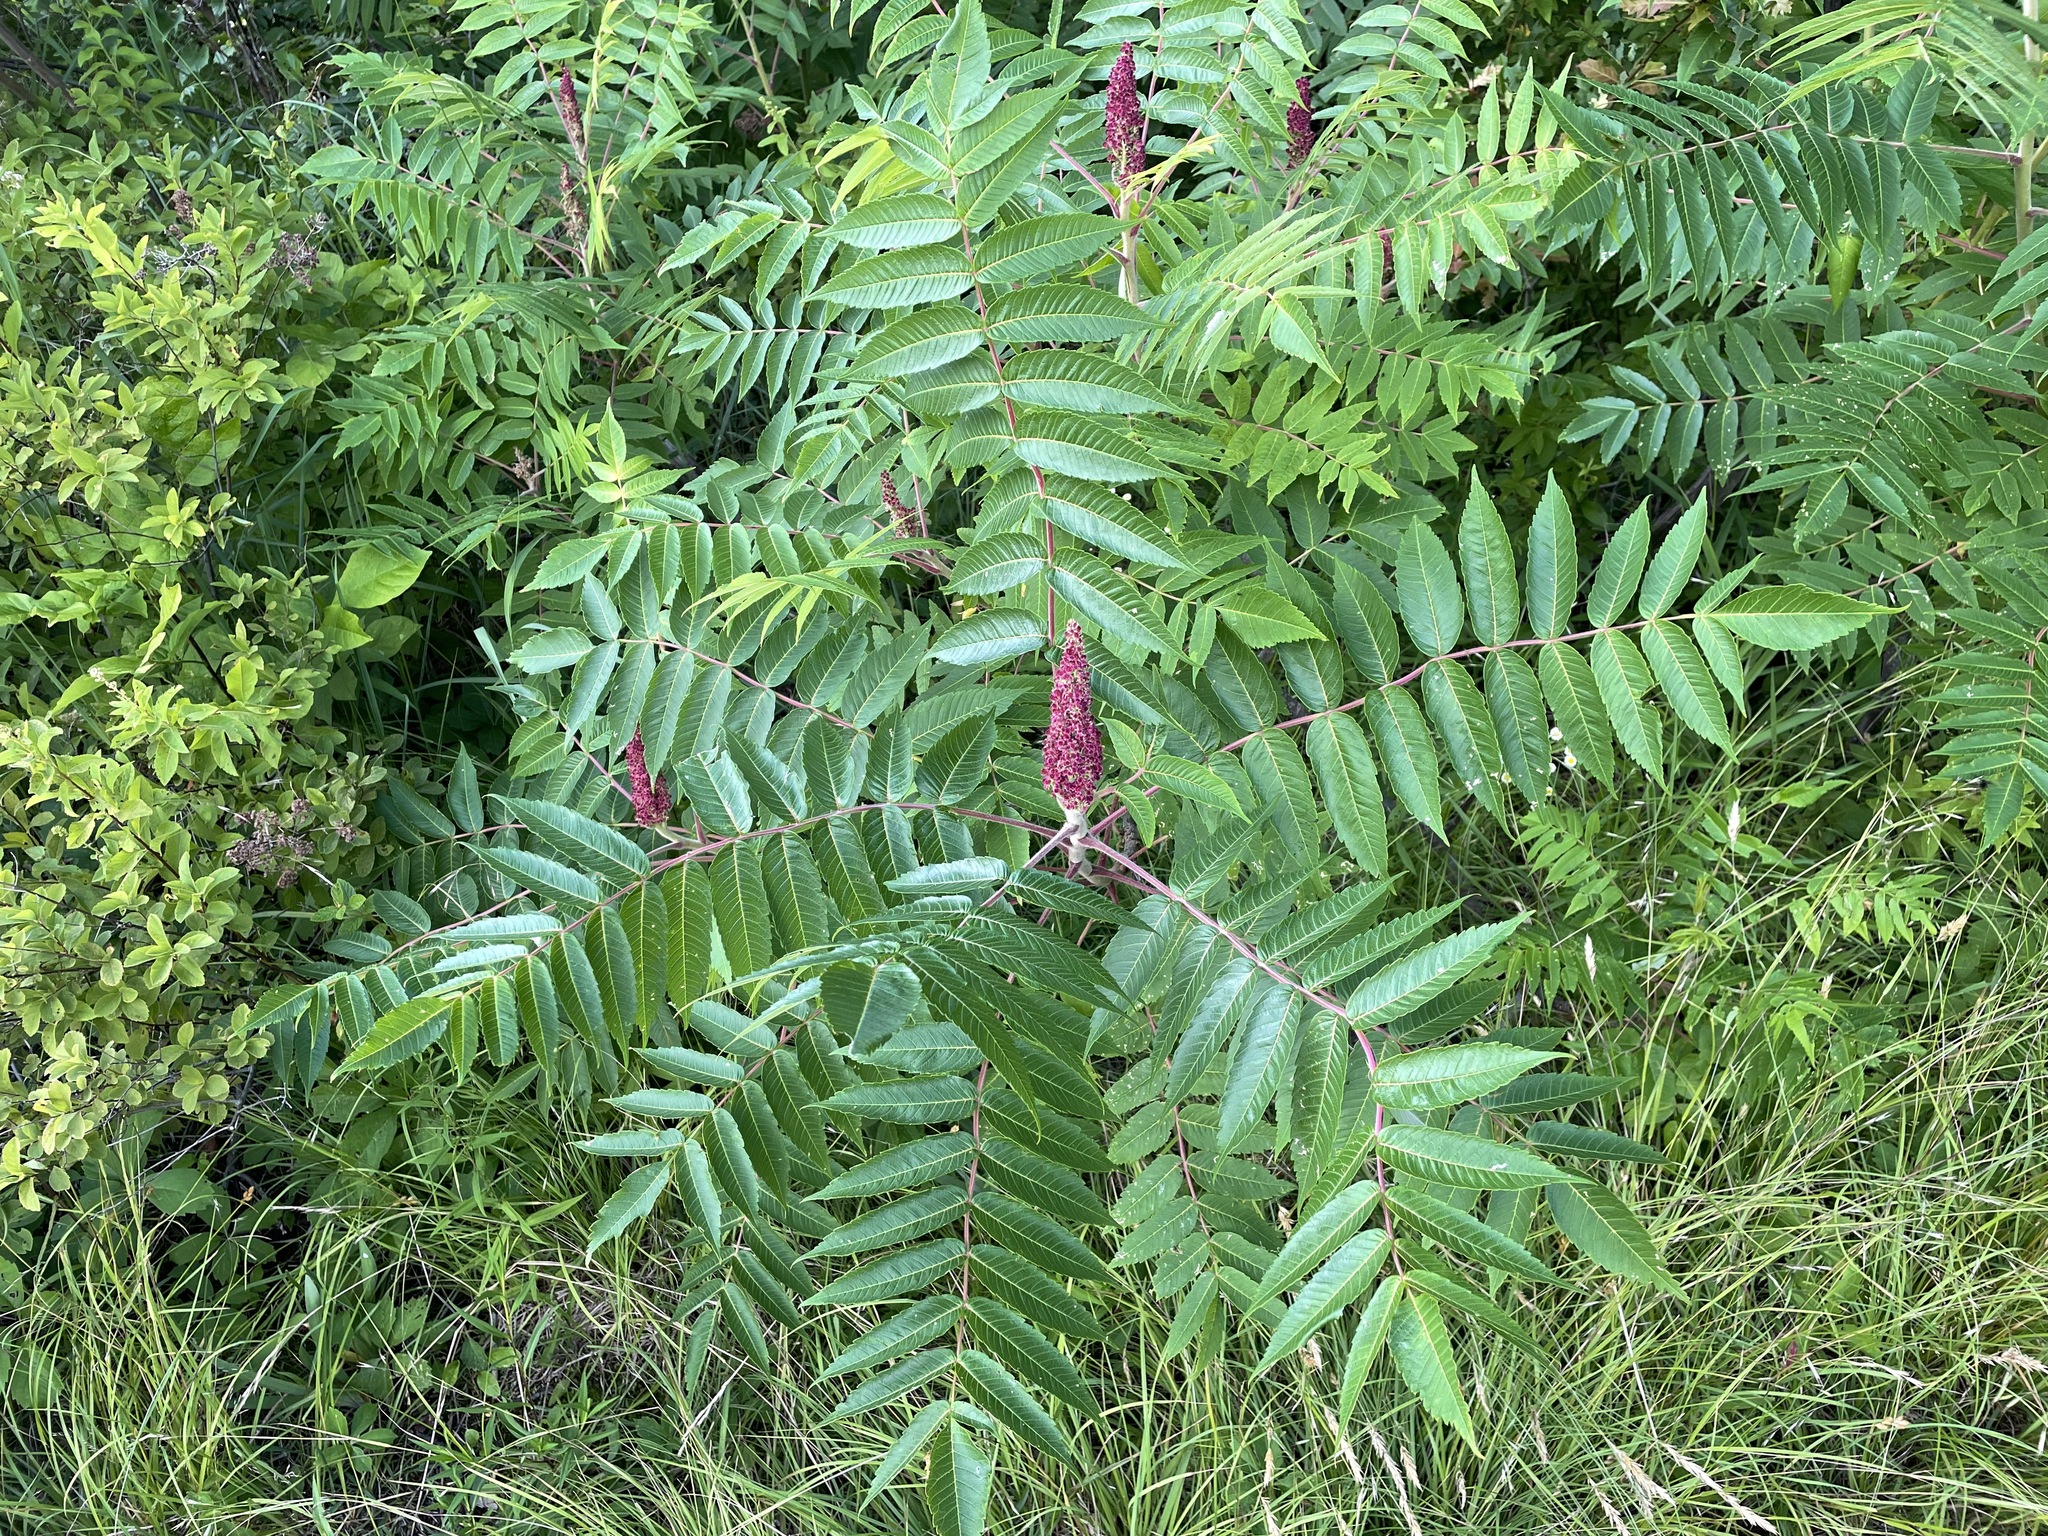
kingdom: Plantae
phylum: Tracheophyta
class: Magnoliopsida
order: Sapindales
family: Anacardiaceae
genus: Rhus
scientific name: Rhus typhina
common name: Staghorn sumac
